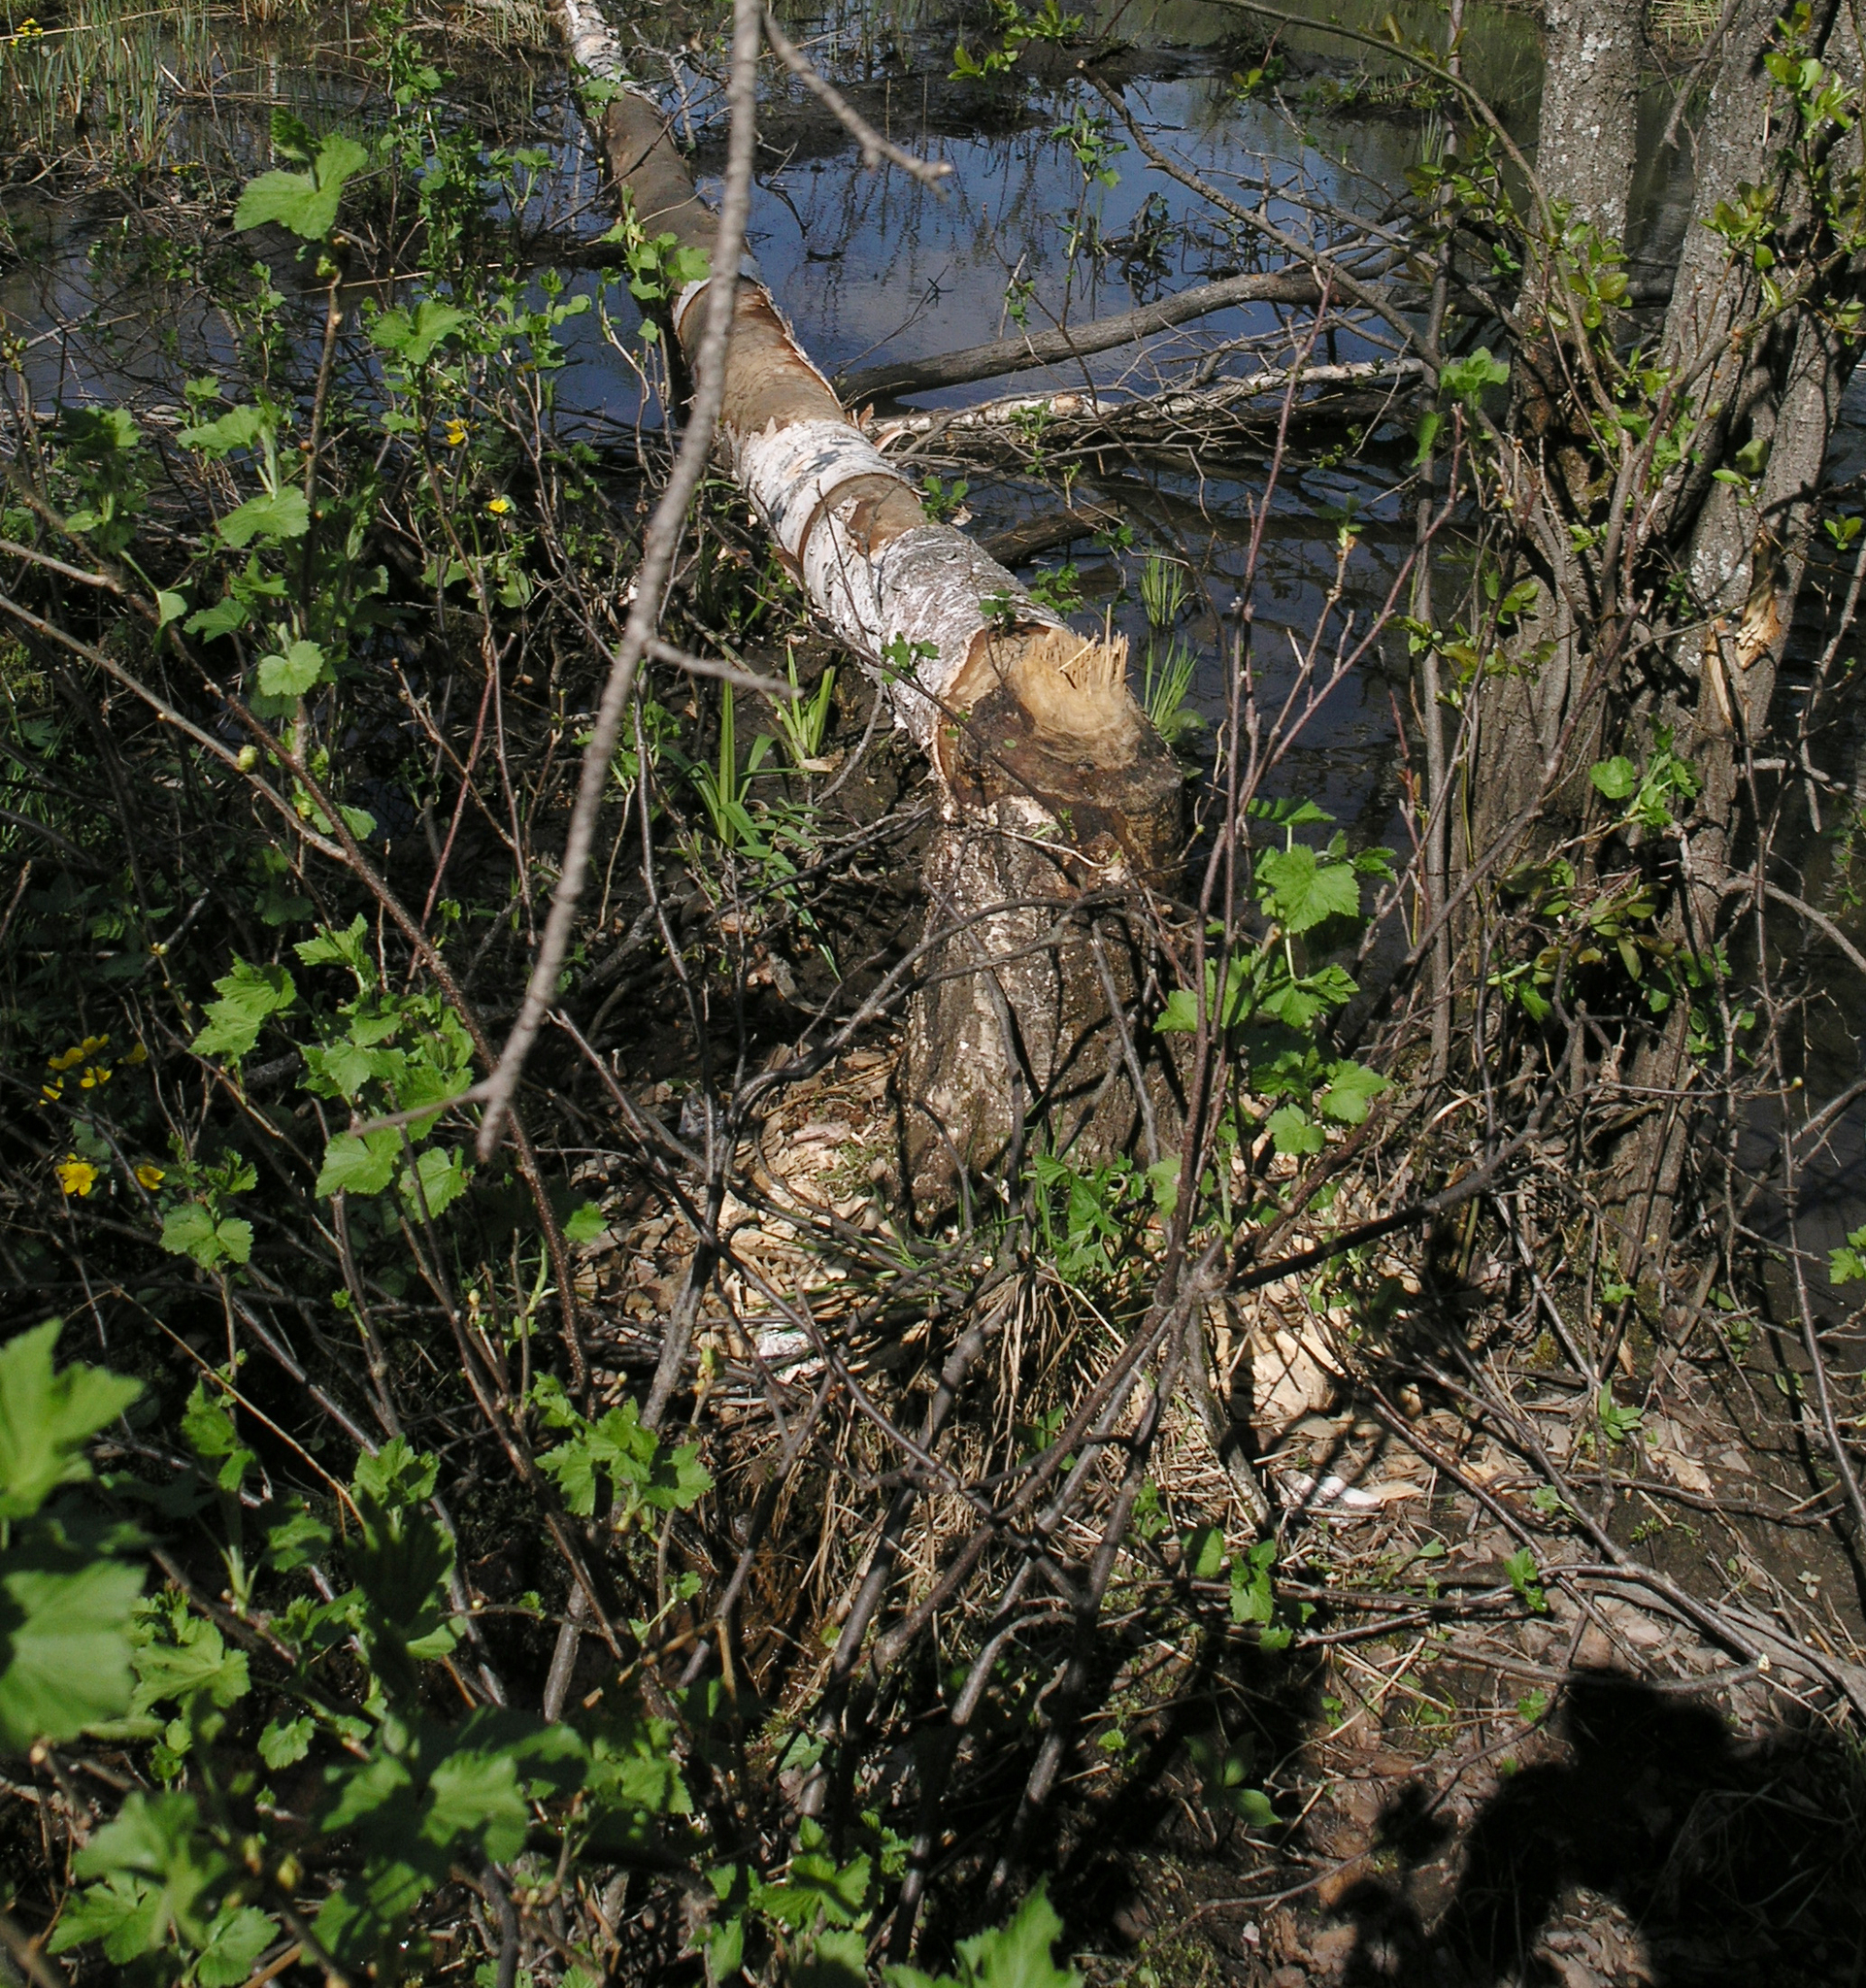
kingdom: Plantae
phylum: Tracheophyta
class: Magnoliopsida
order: Saxifragales
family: Grossulariaceae
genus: Ribes
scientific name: Ribes nigrum
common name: Black currant
